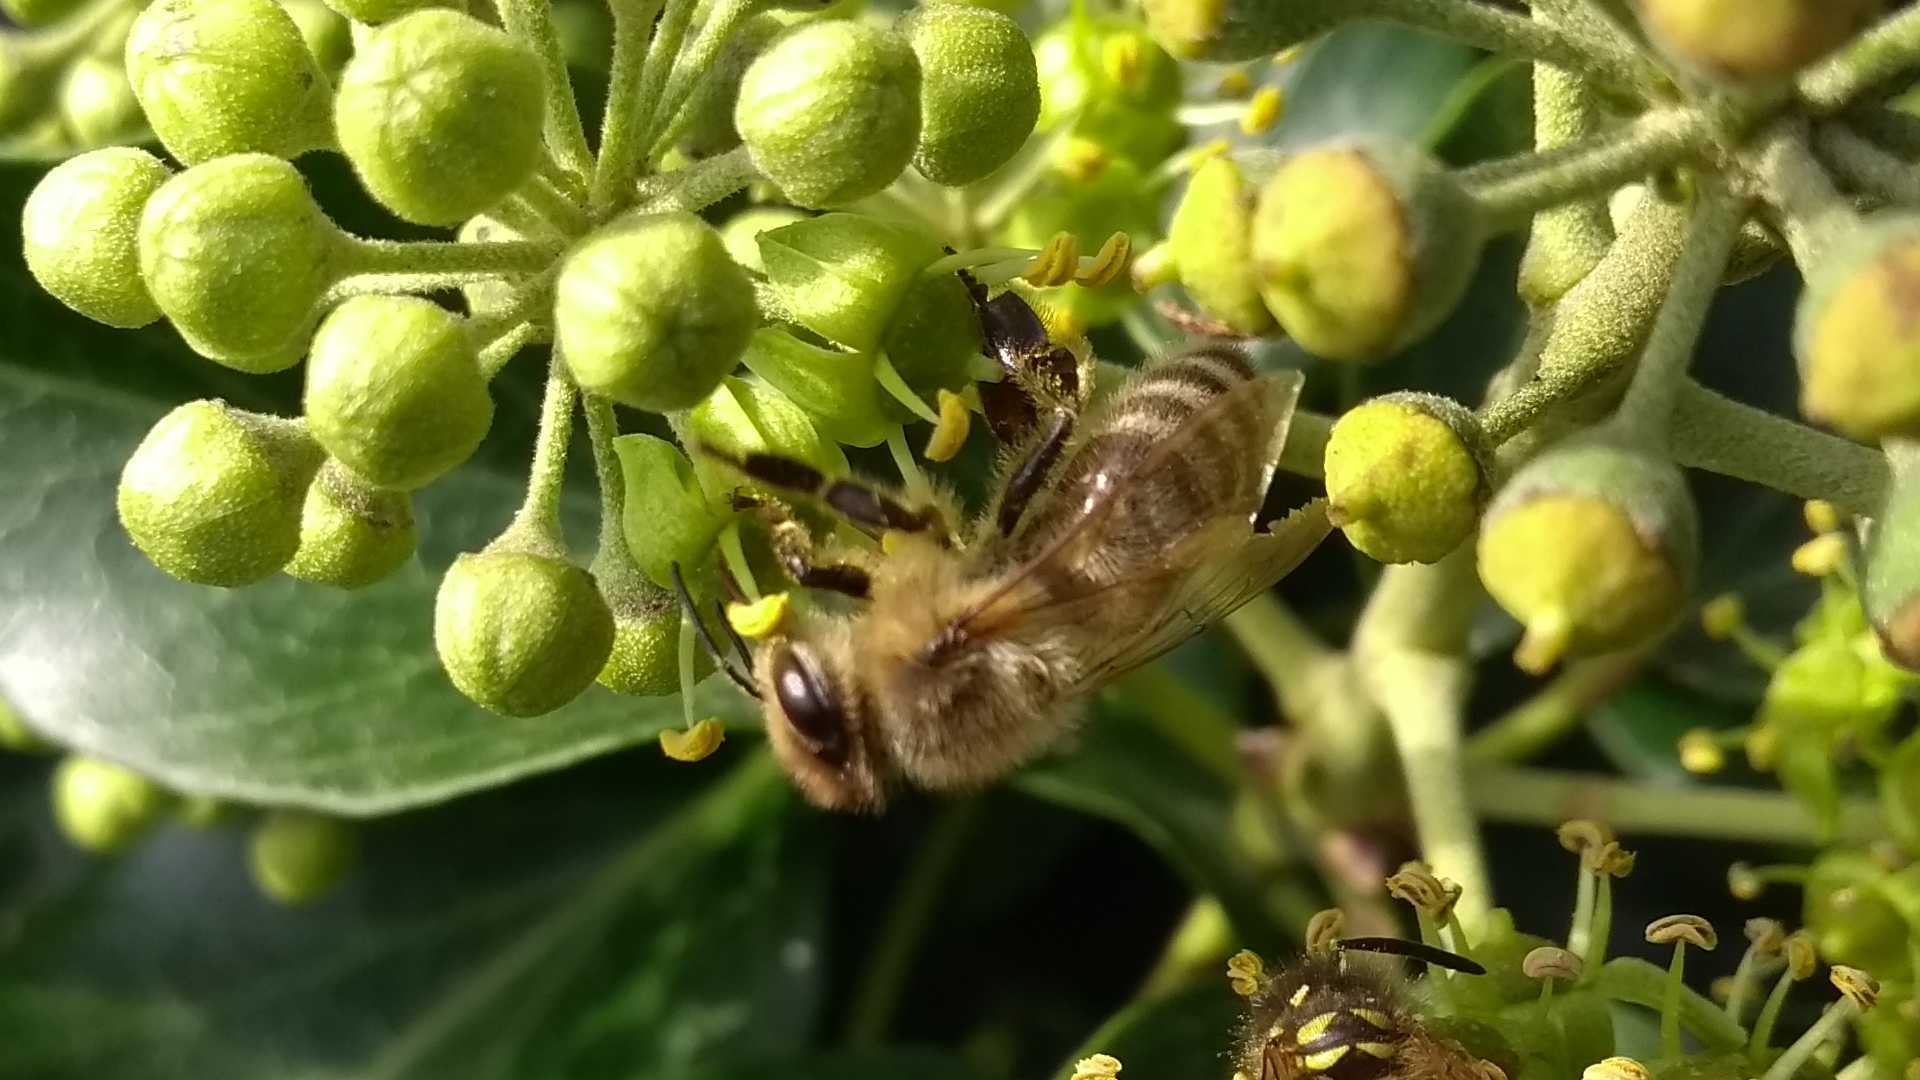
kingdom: Animalia
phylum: Arthropoda
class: Insecta
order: Hymenoptera
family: Apidae
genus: Apis
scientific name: Apis mellifera
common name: Honey bee
